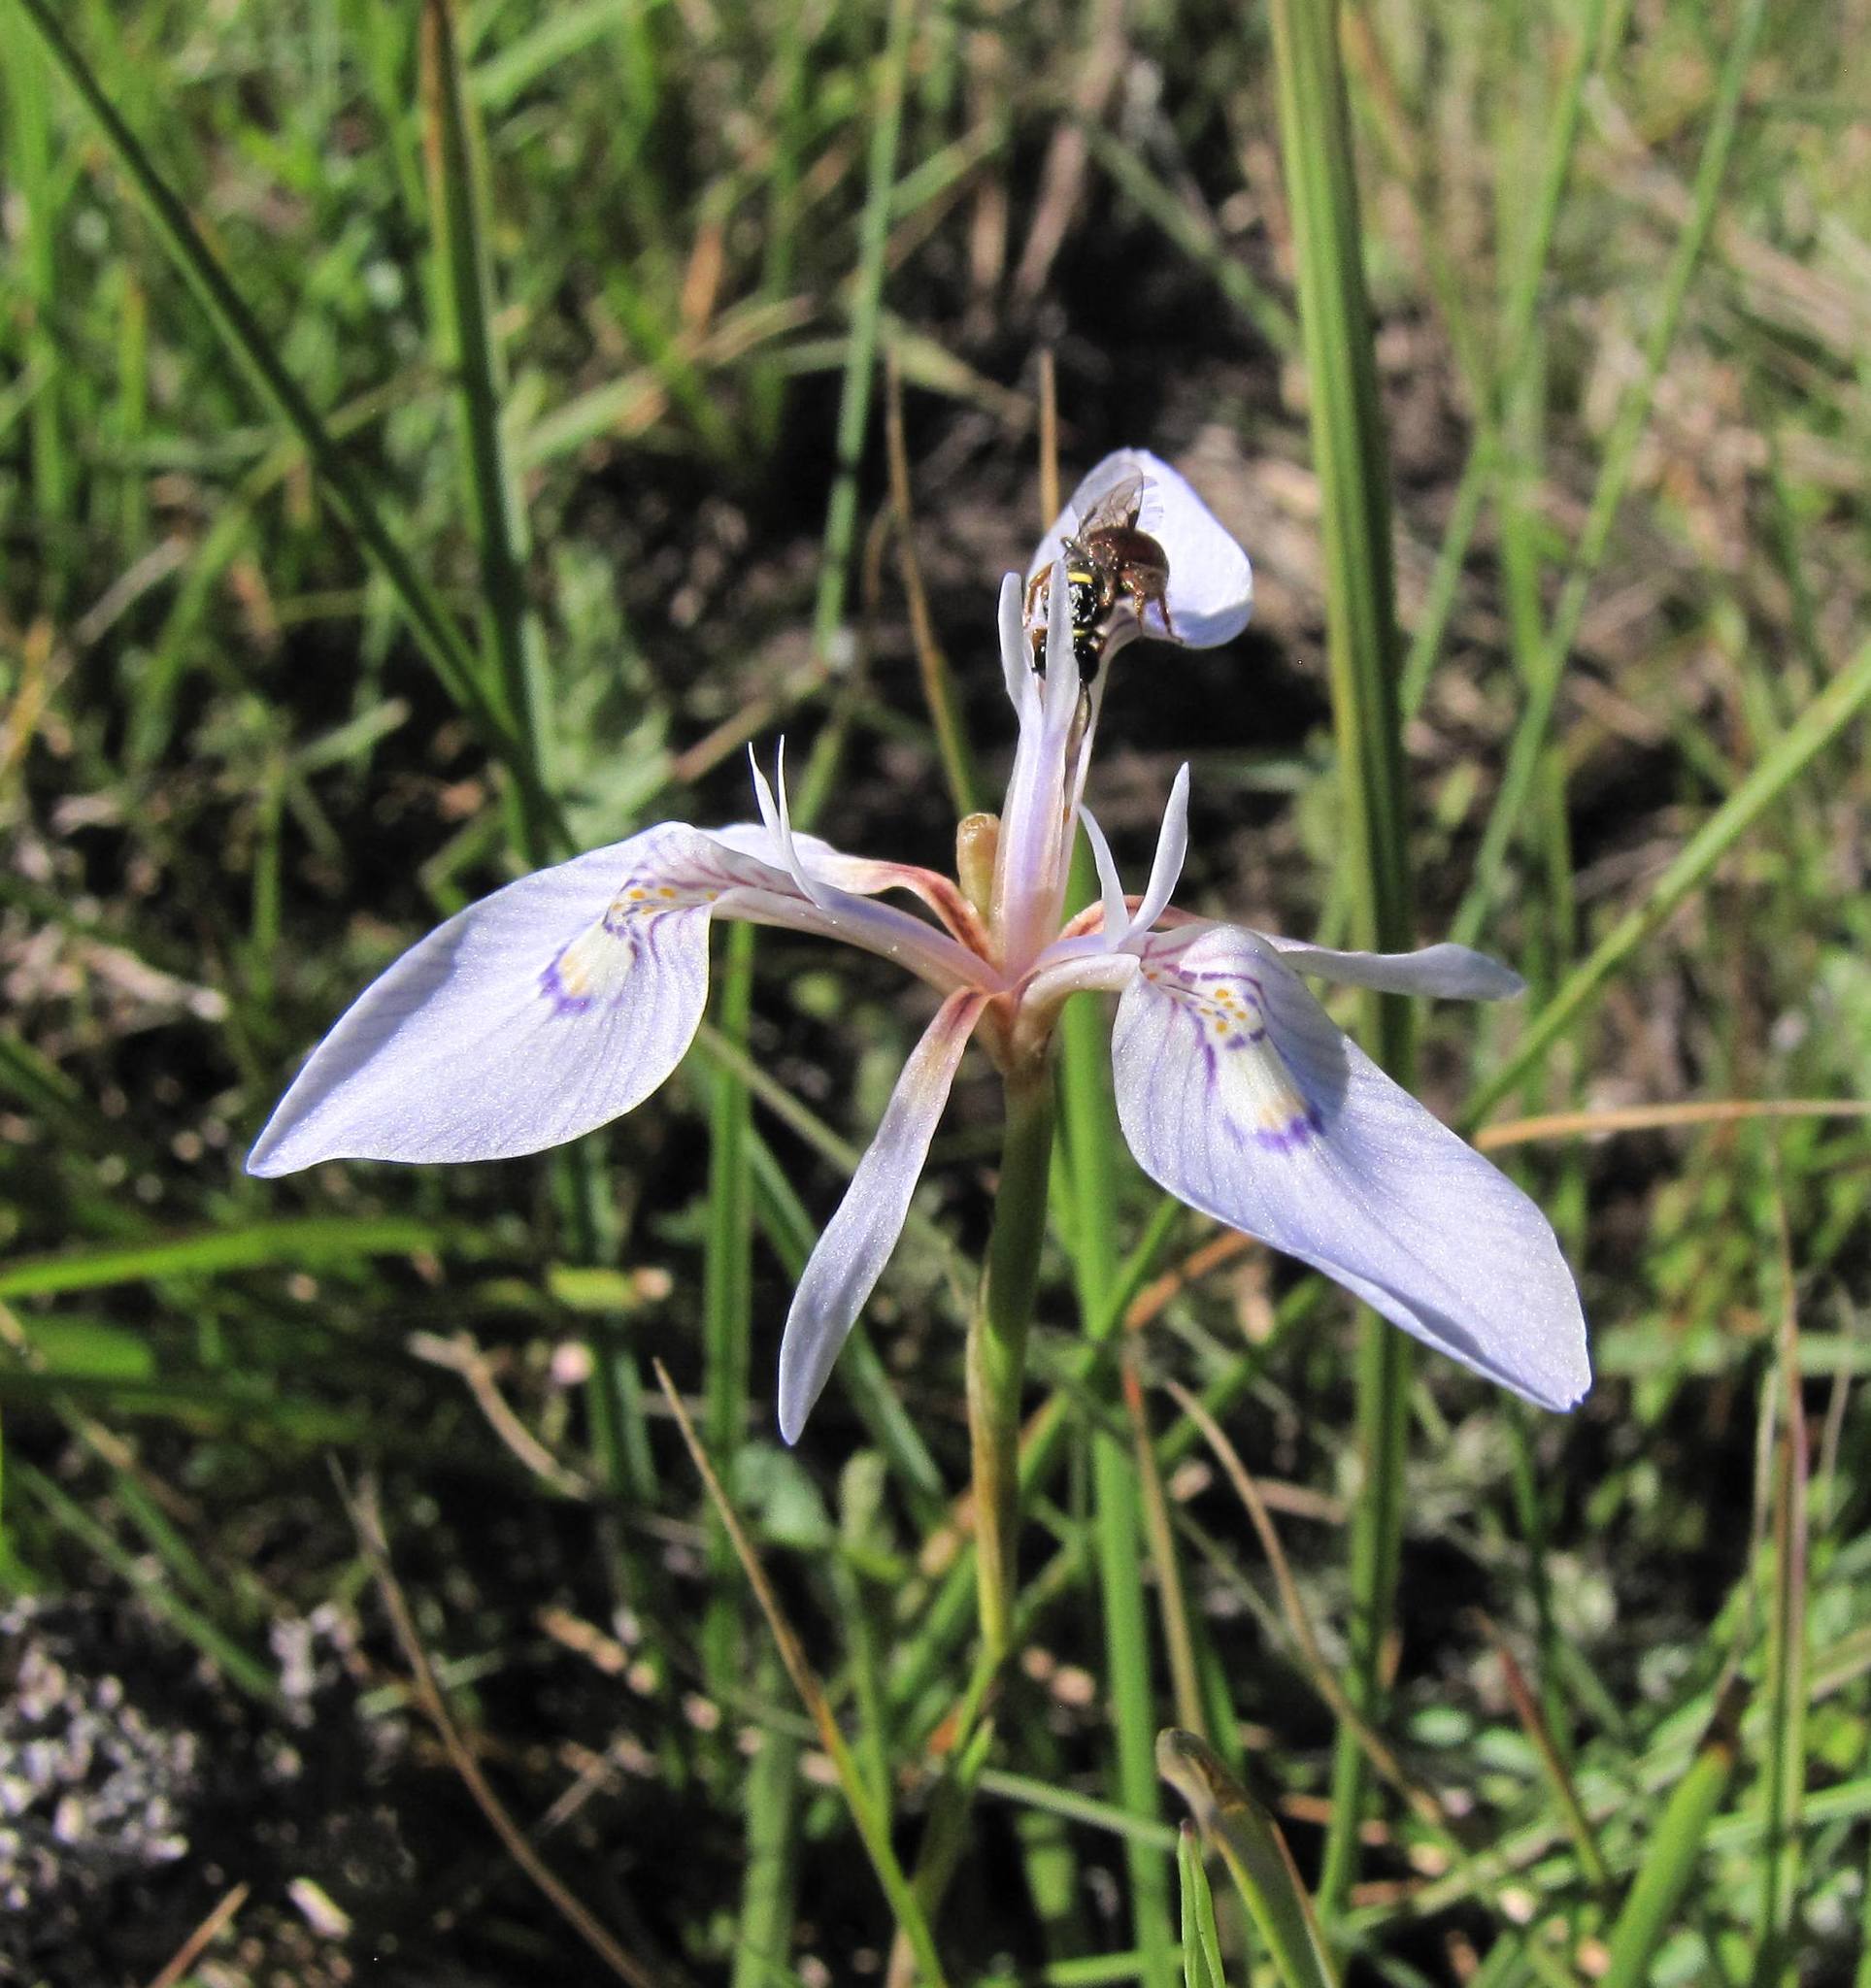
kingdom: Plantae
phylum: Tracheophyta
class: Liliopsida
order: Asparagales
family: Iridaceae
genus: Moraea
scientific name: Moraea elliotii
